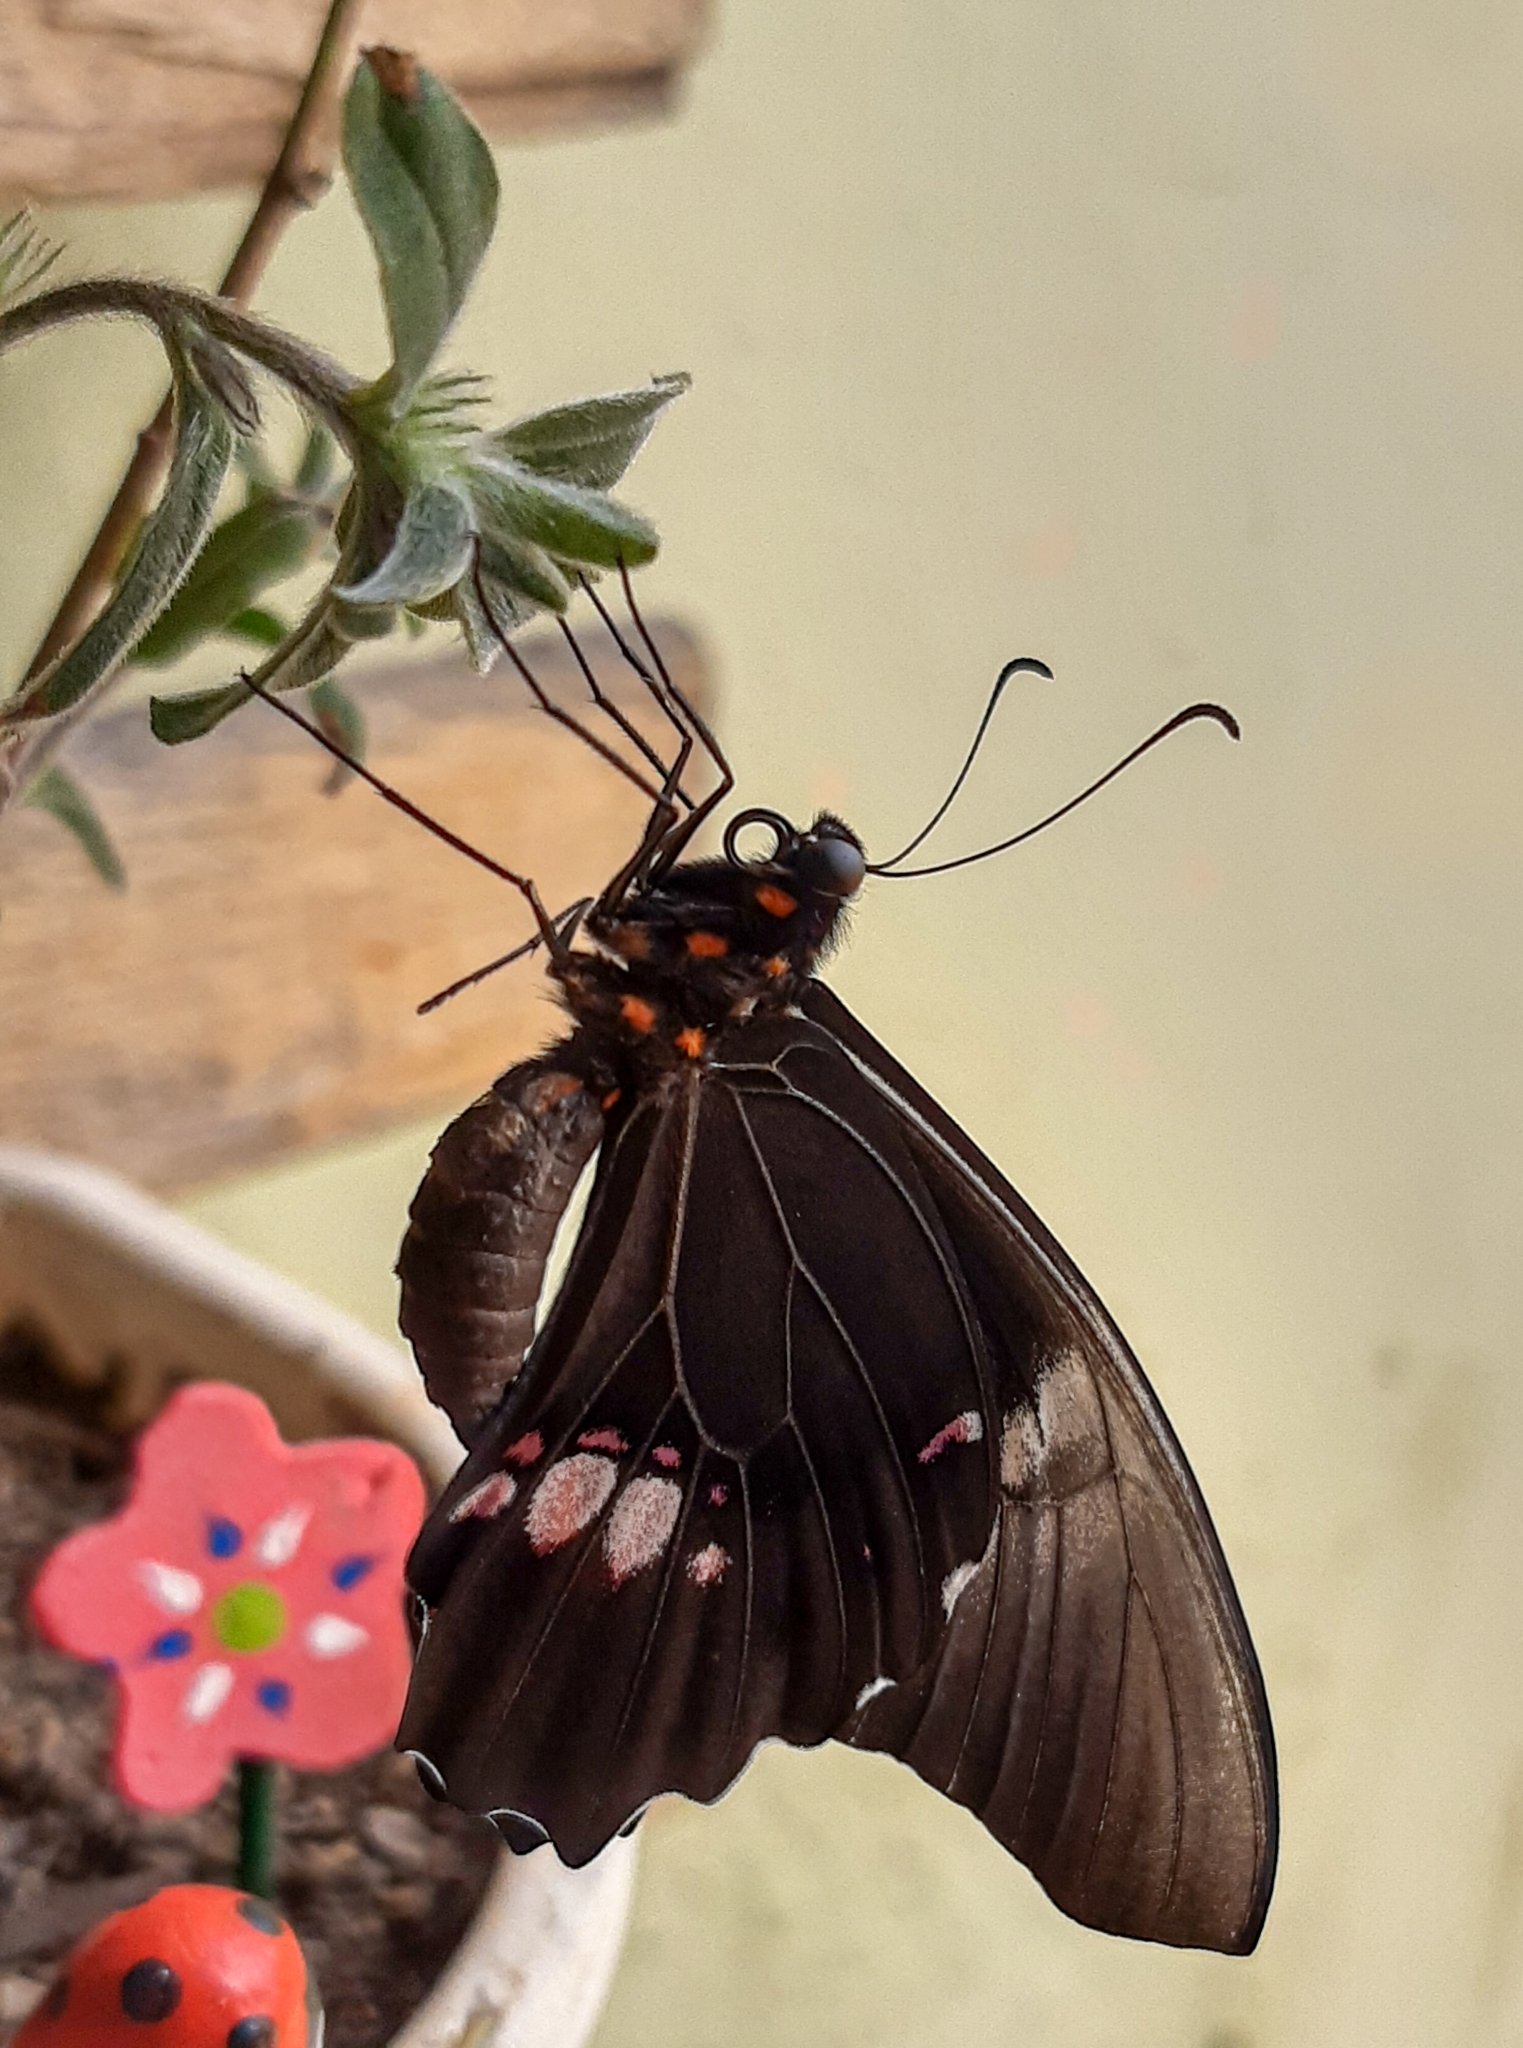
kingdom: Animalia
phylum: Arthropoda
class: Insecta
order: Lepidoptera
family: Papilionidae
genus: Papilio
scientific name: Papilio anchisiades
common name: Idaes swallowtail
